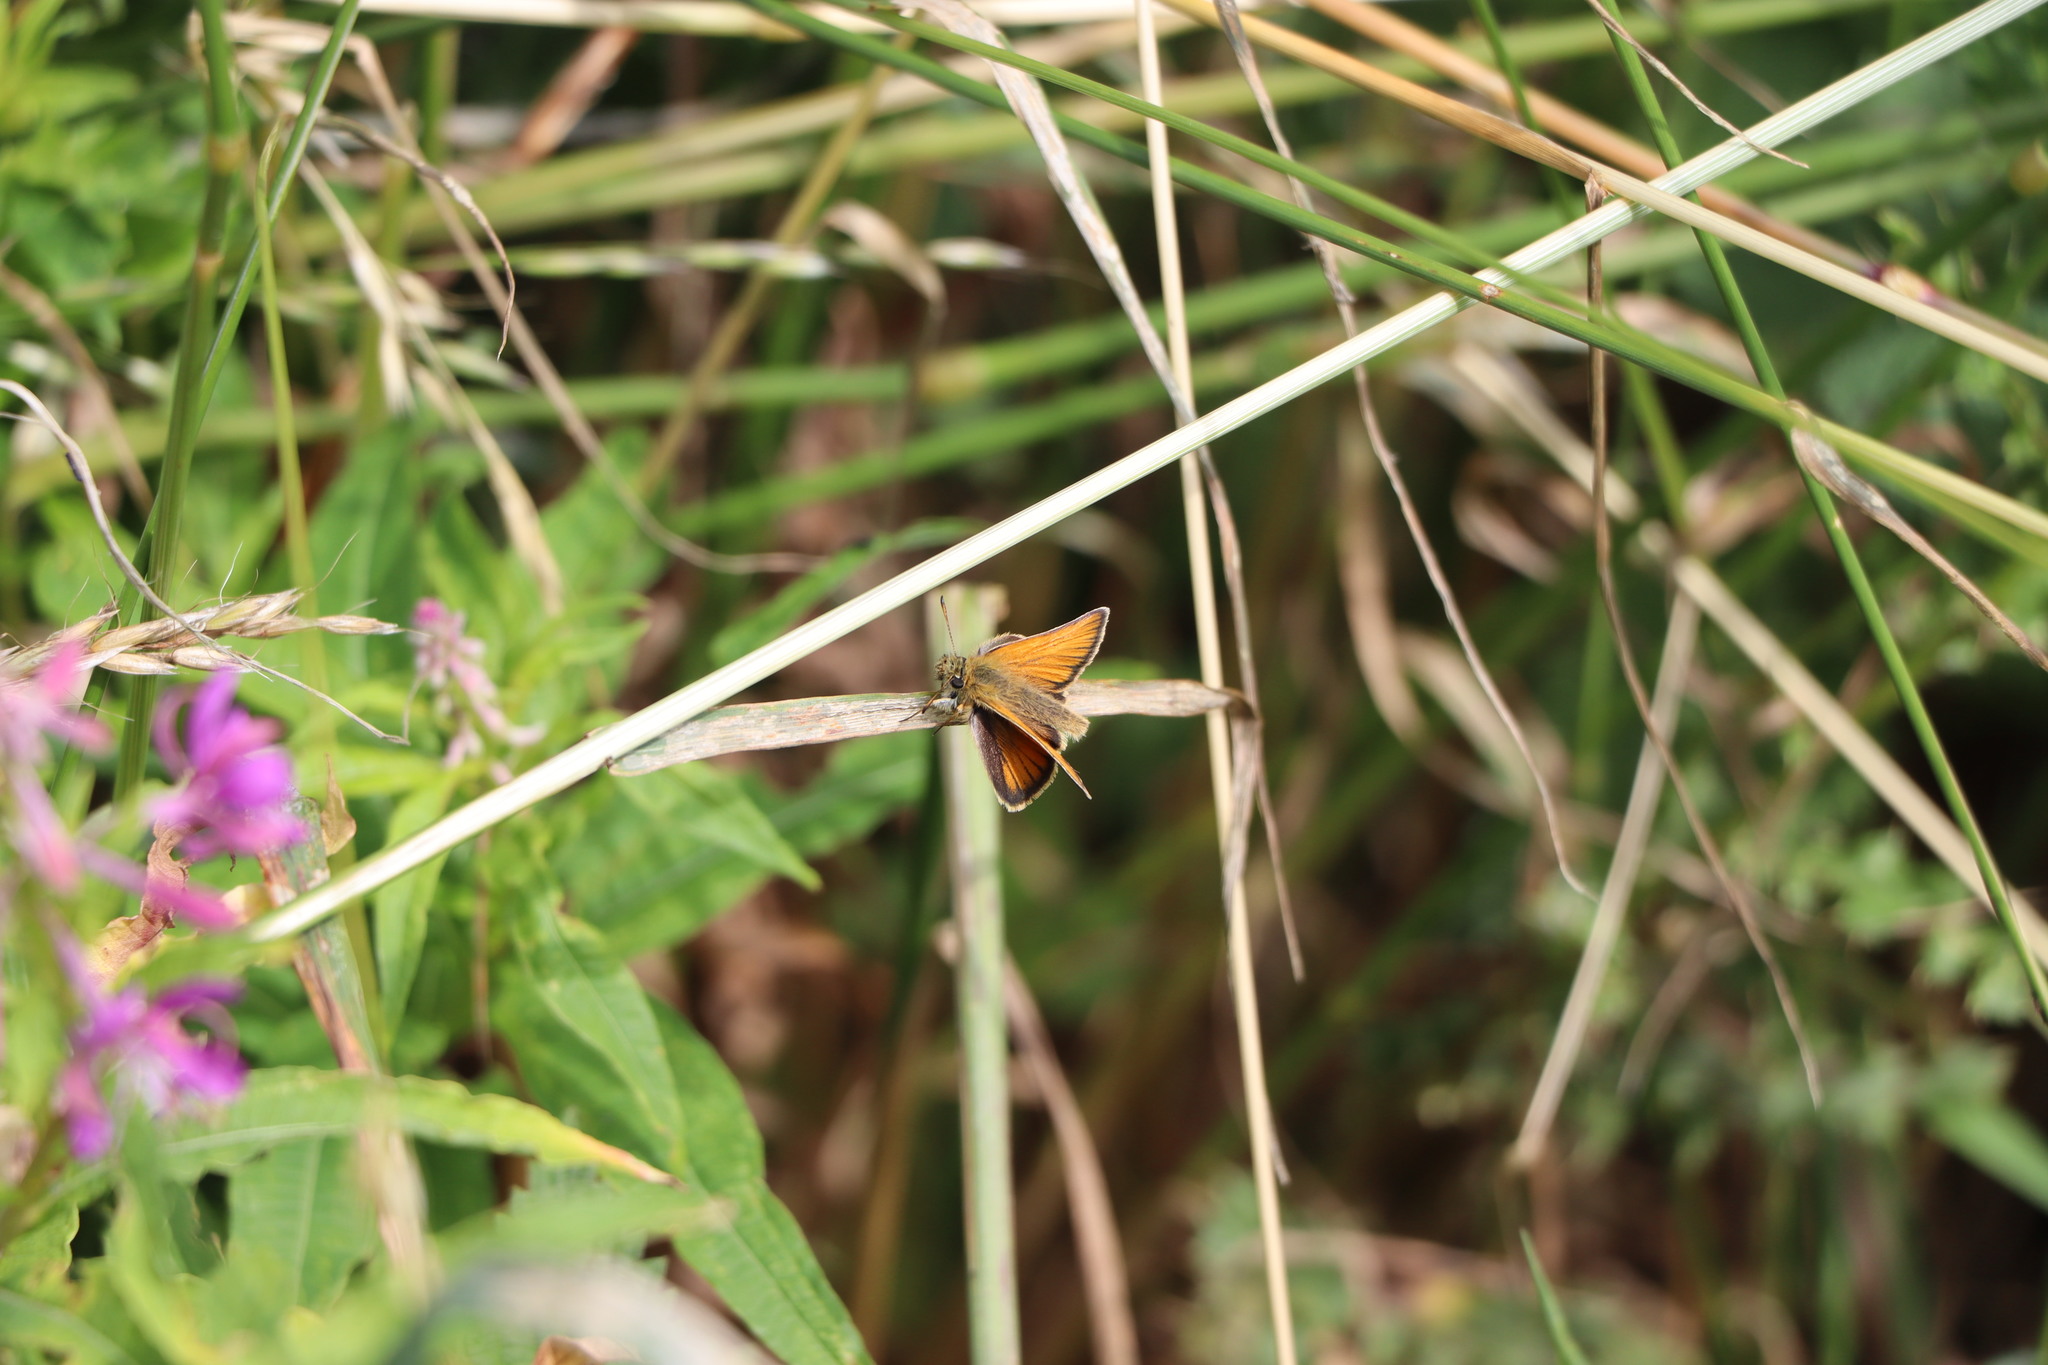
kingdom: Animalia
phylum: Arthropoda
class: Insecta
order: Lepidoptera
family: Hesperiidae
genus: Thymelicus
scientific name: Thymelicus lineola
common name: Essex skipper
